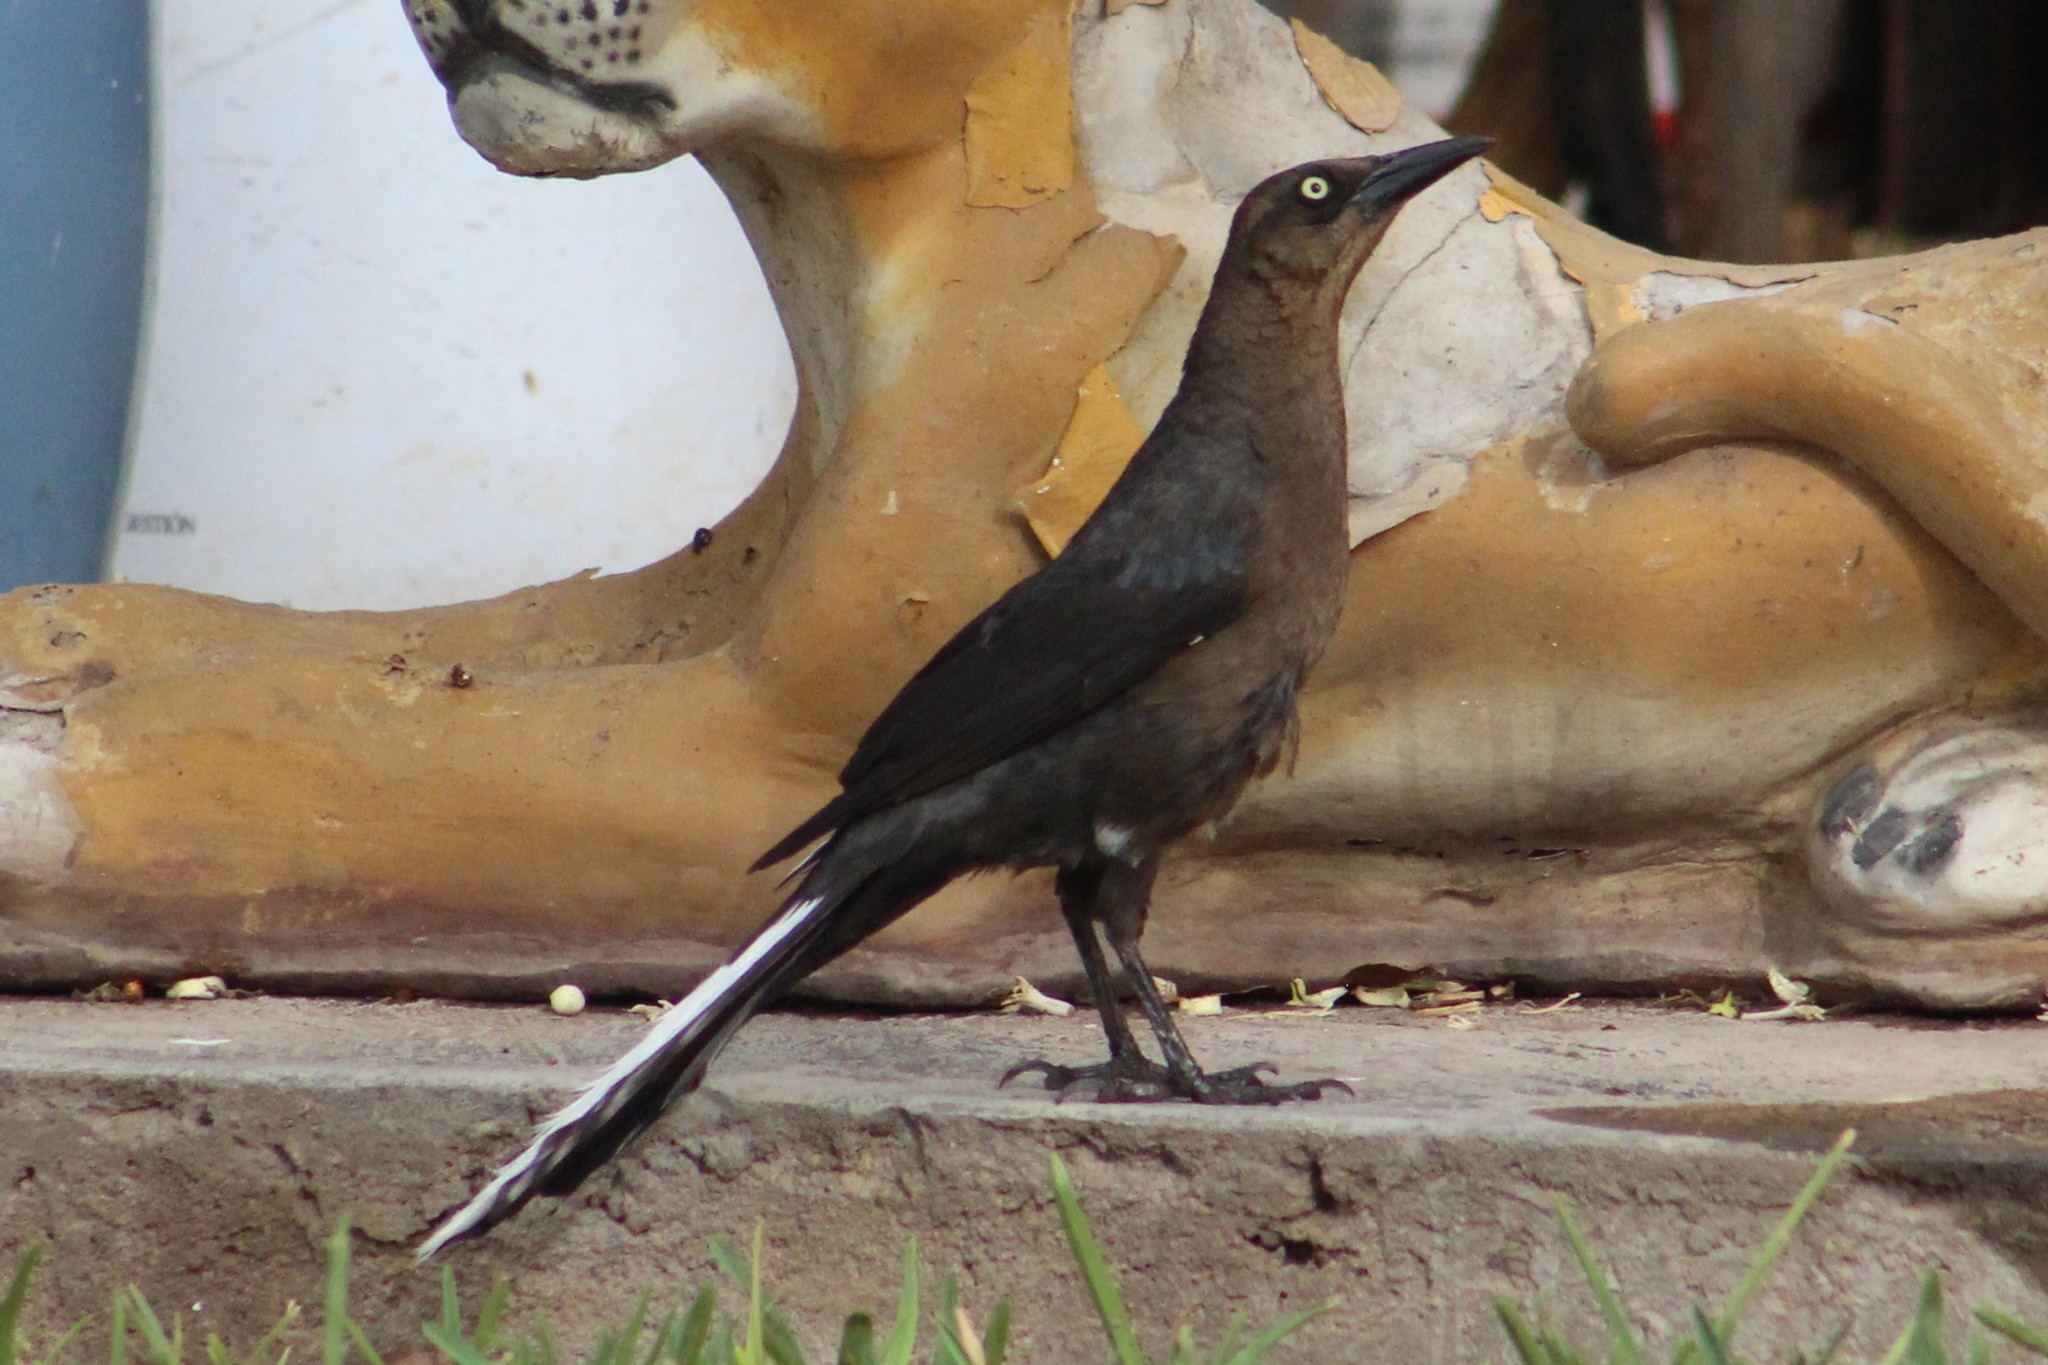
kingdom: Animalia
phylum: Chordata
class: Aves
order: Passeriformes
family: Icteridae
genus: Quiscalus
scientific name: Quiscalus mexicanus
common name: Great-tailed grackle
